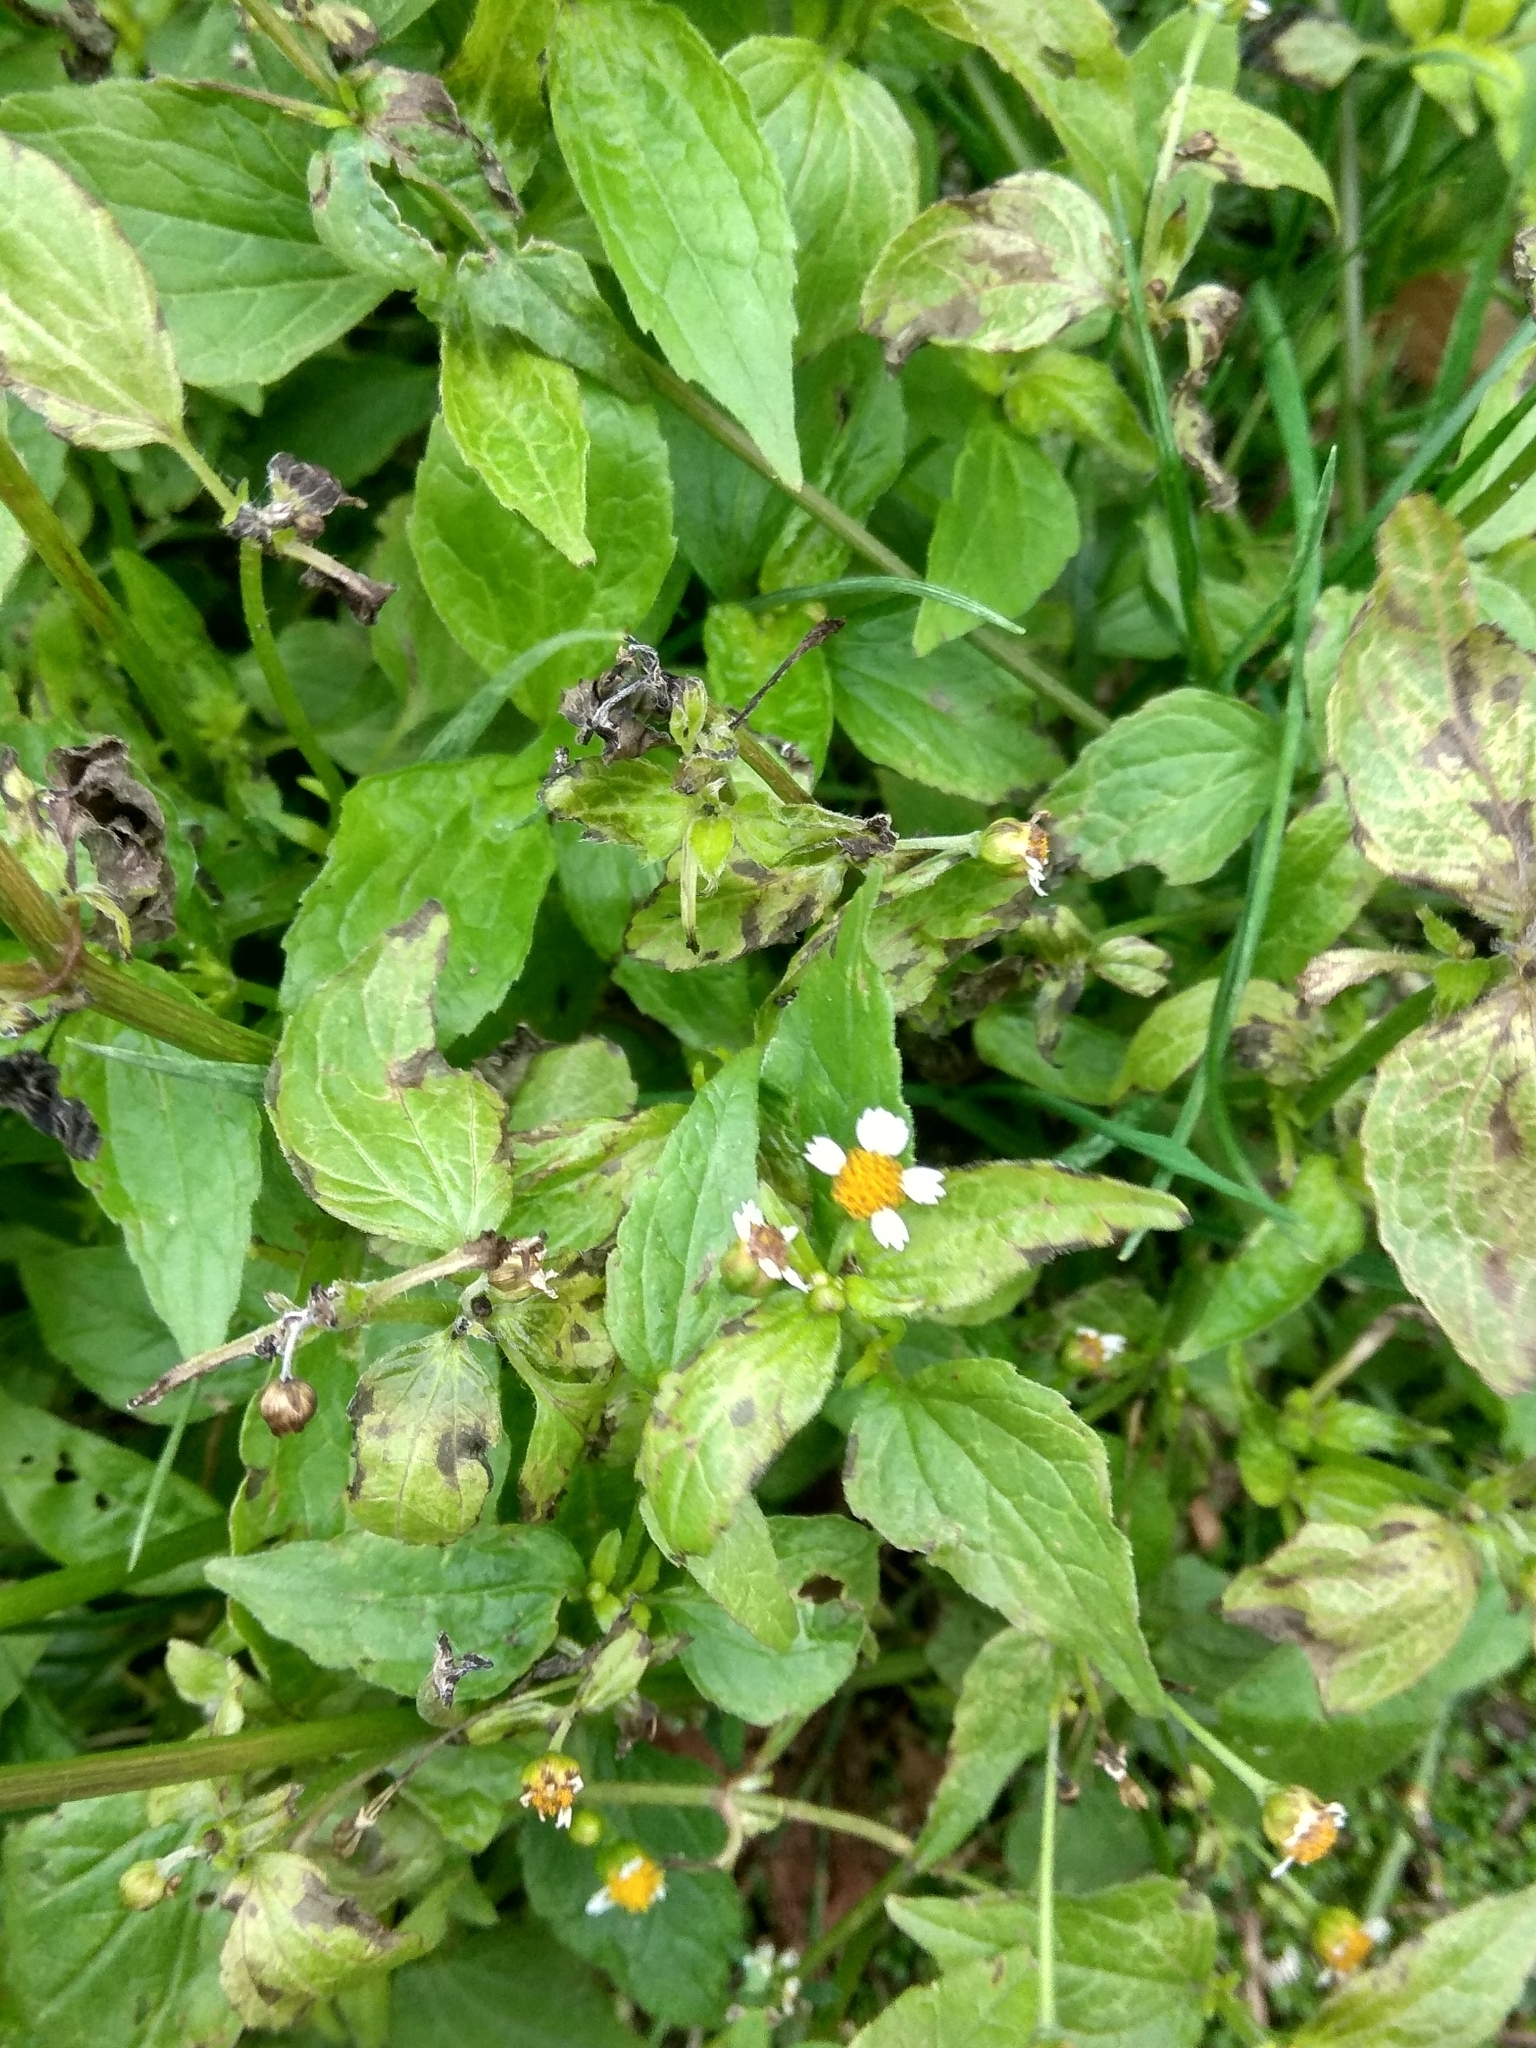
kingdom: Plantae
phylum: Tracheophyta
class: Magnoliopsida
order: Asterales
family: Asteraceae
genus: Galinsoga
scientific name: Galinsoga parviflora
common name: Gallant soldier
